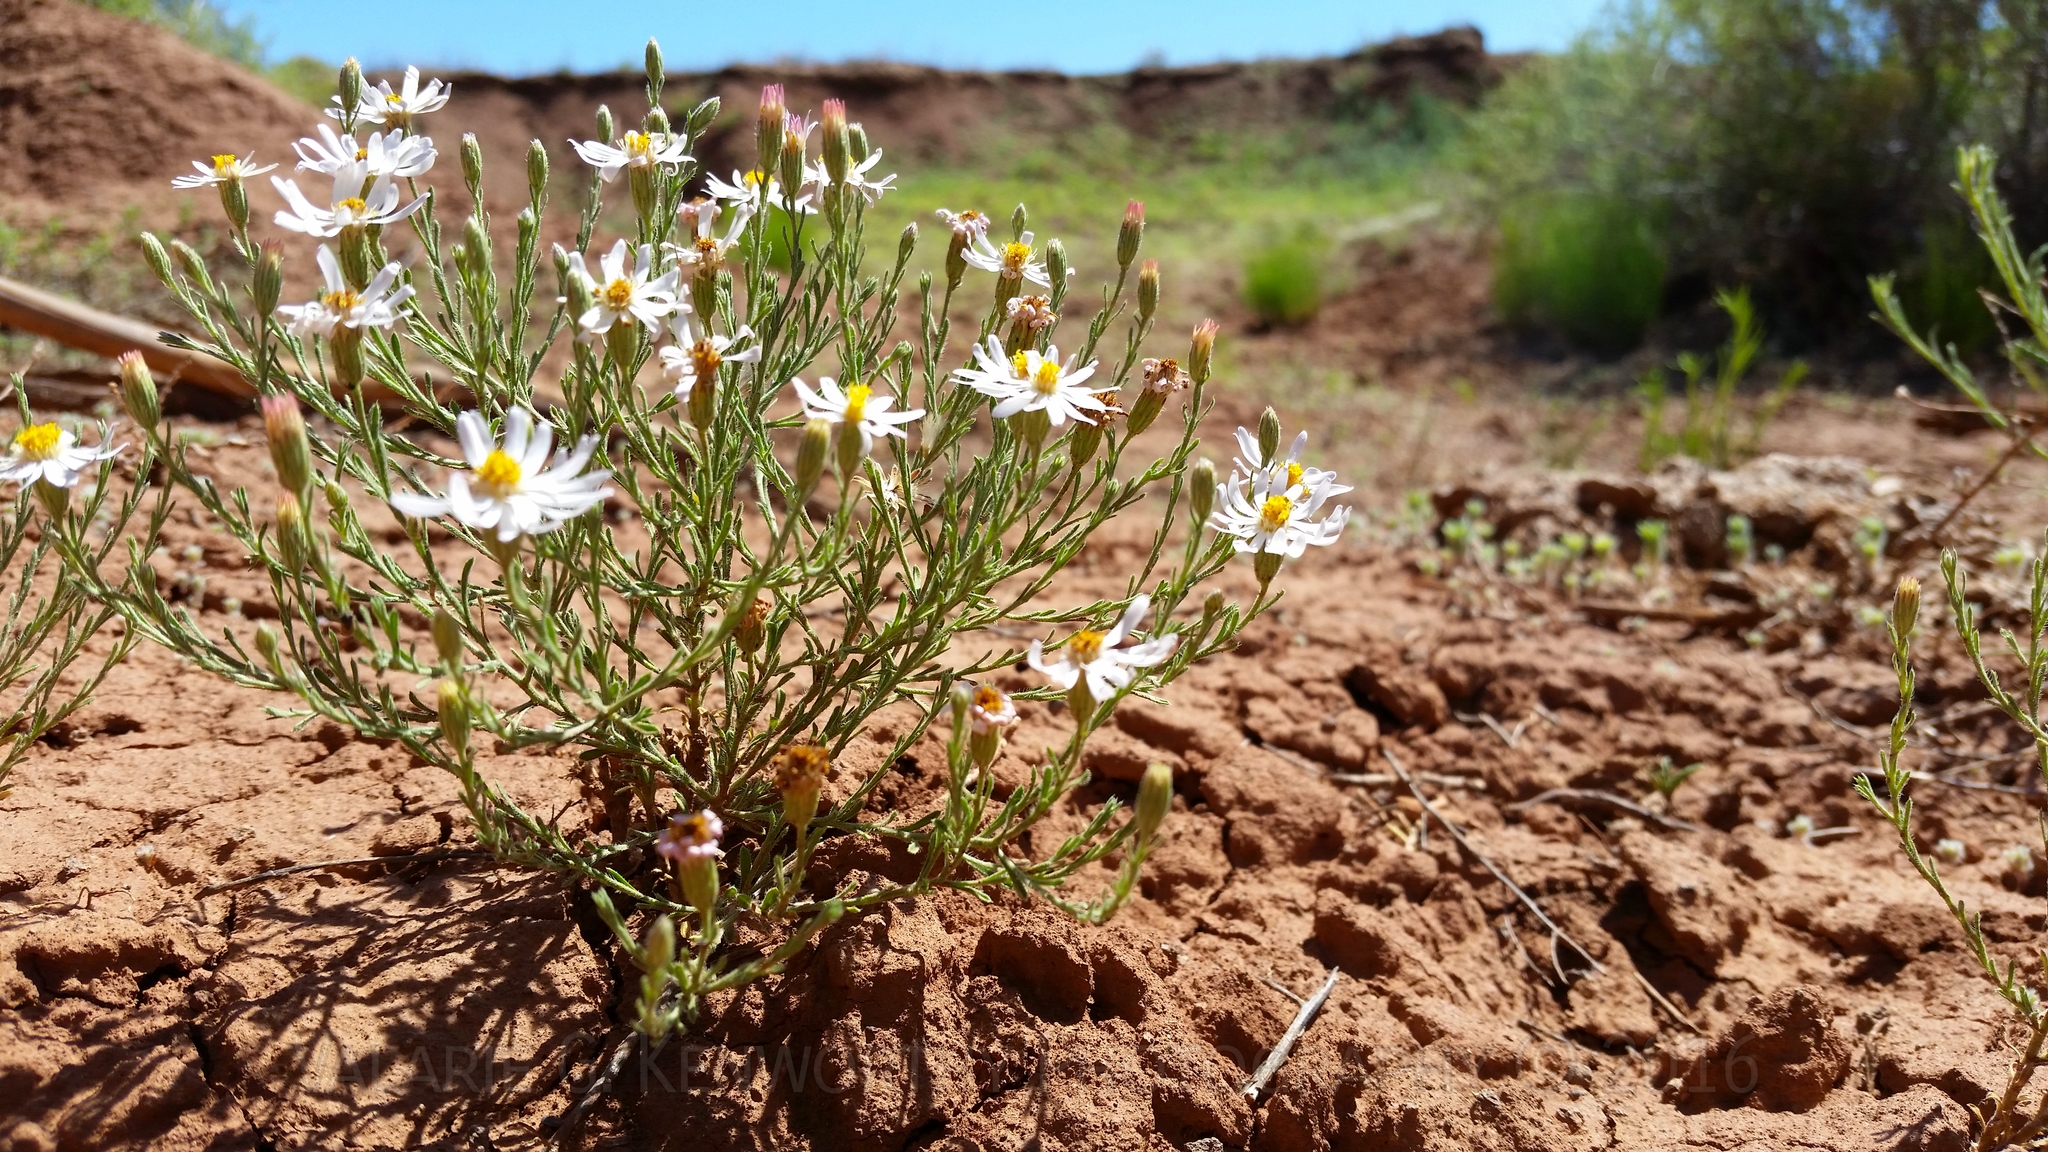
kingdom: Plantae
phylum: Tracheophyta
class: Magnoliopsida
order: Asterales
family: Asteraceae
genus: Chaetopappa
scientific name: Chaetopappa ericoides
